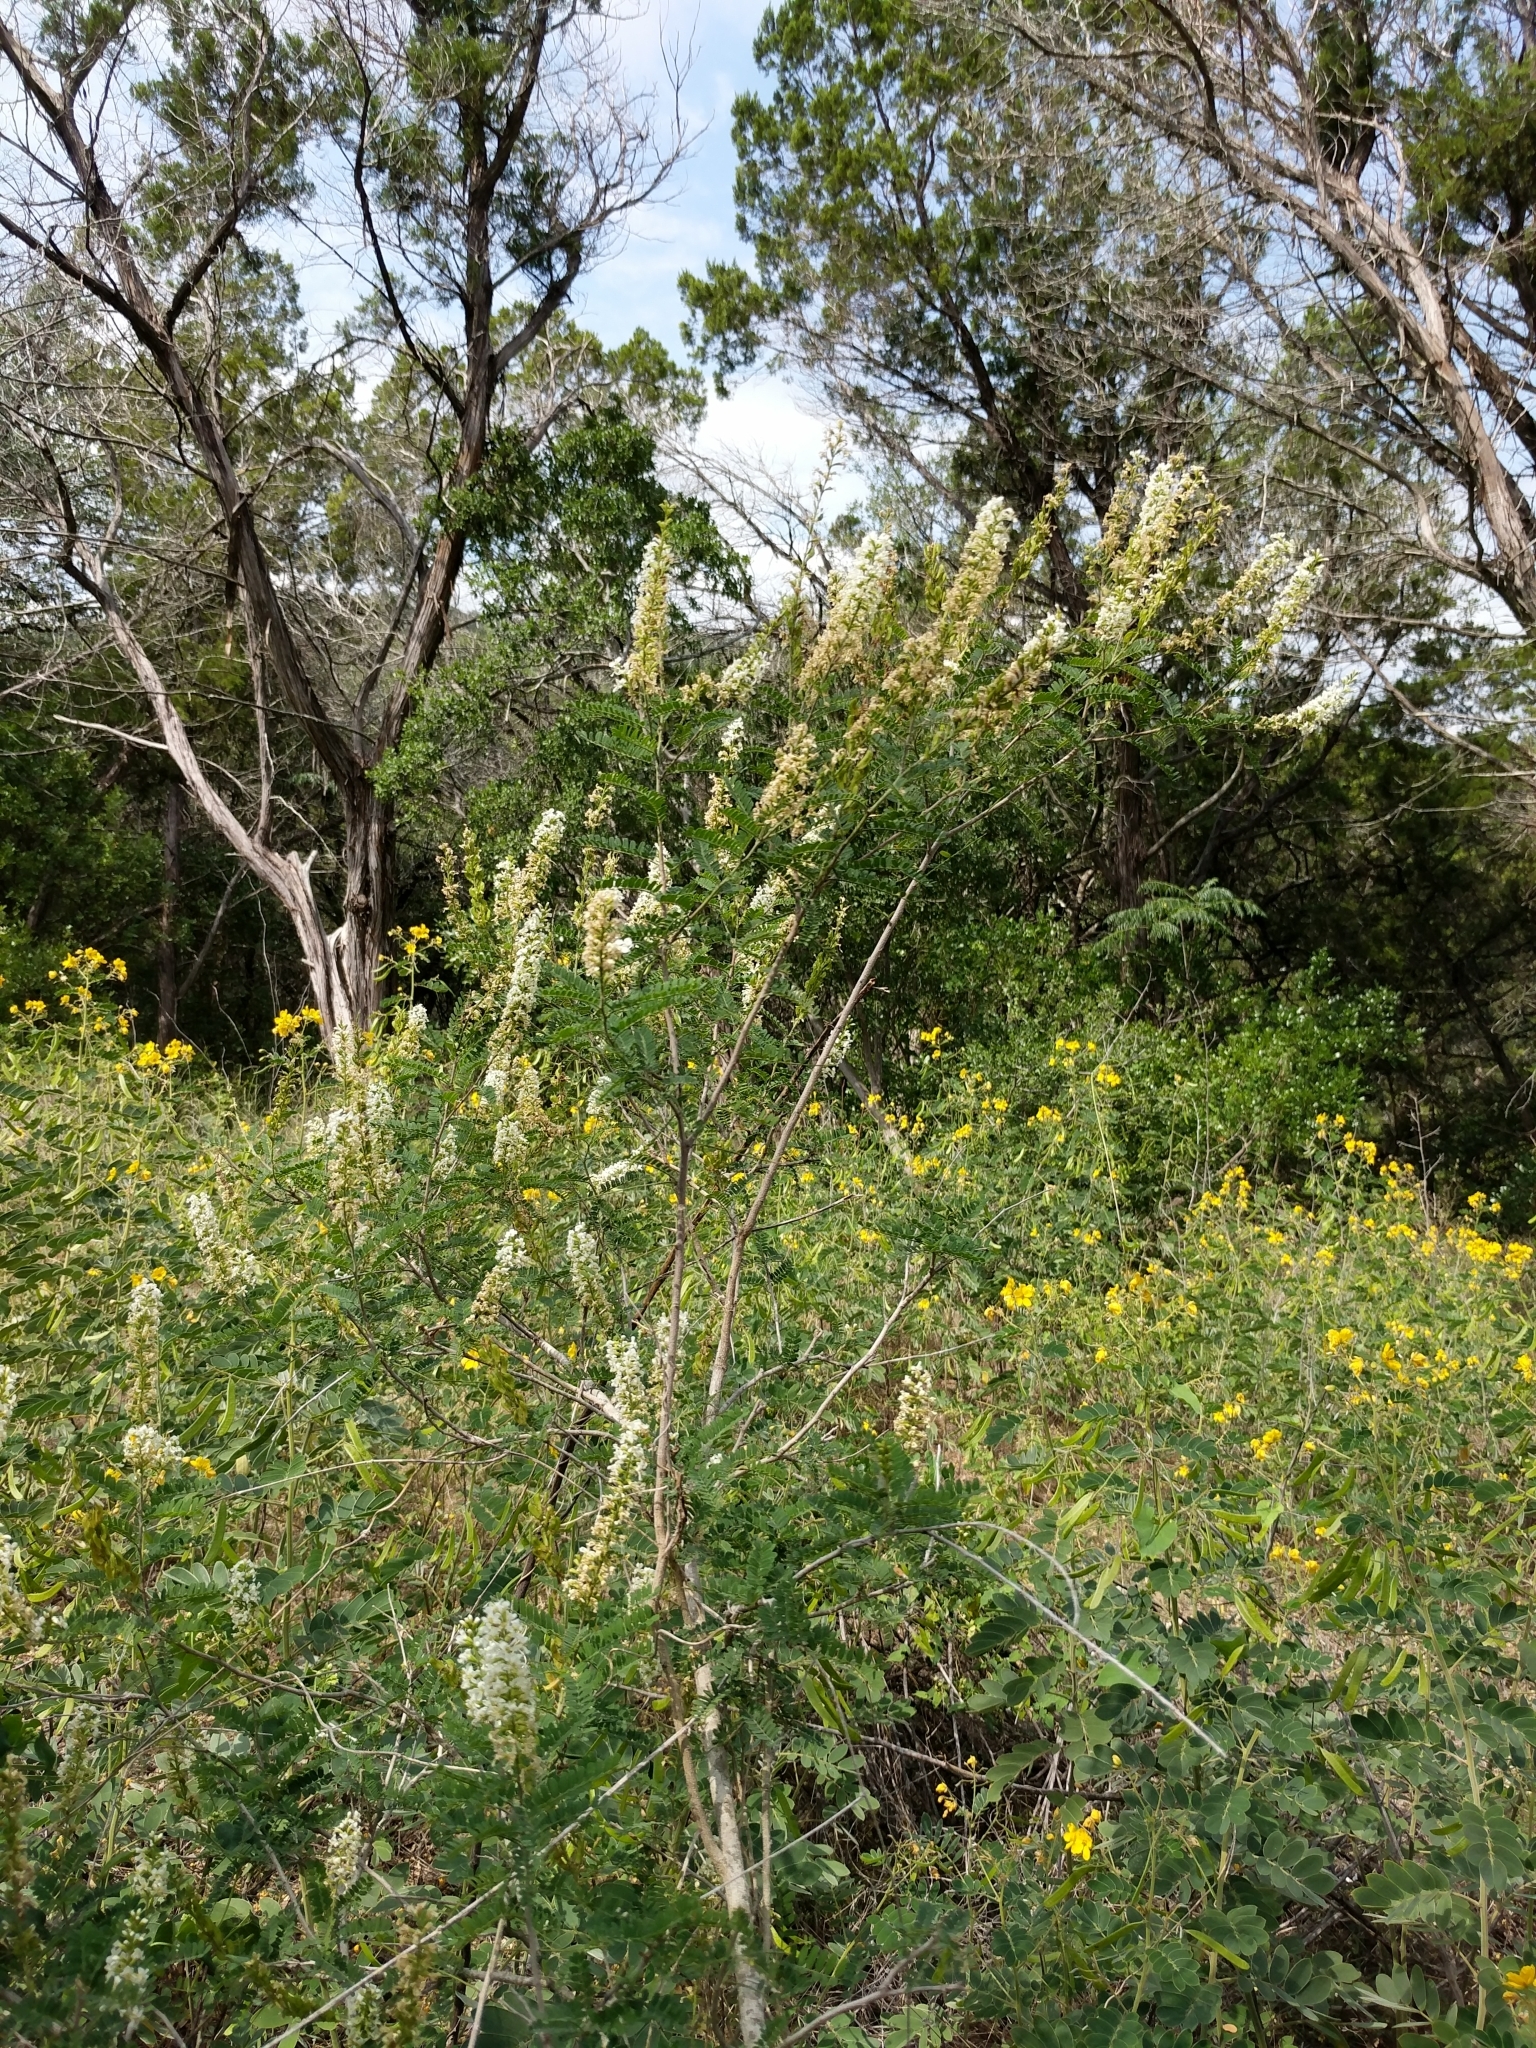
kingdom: Plantae
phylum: Tracheophyta
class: Magnoliopsida
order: Fabales
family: Fabaceae
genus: Eysenhardtia
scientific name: Eysenhardtia texana
